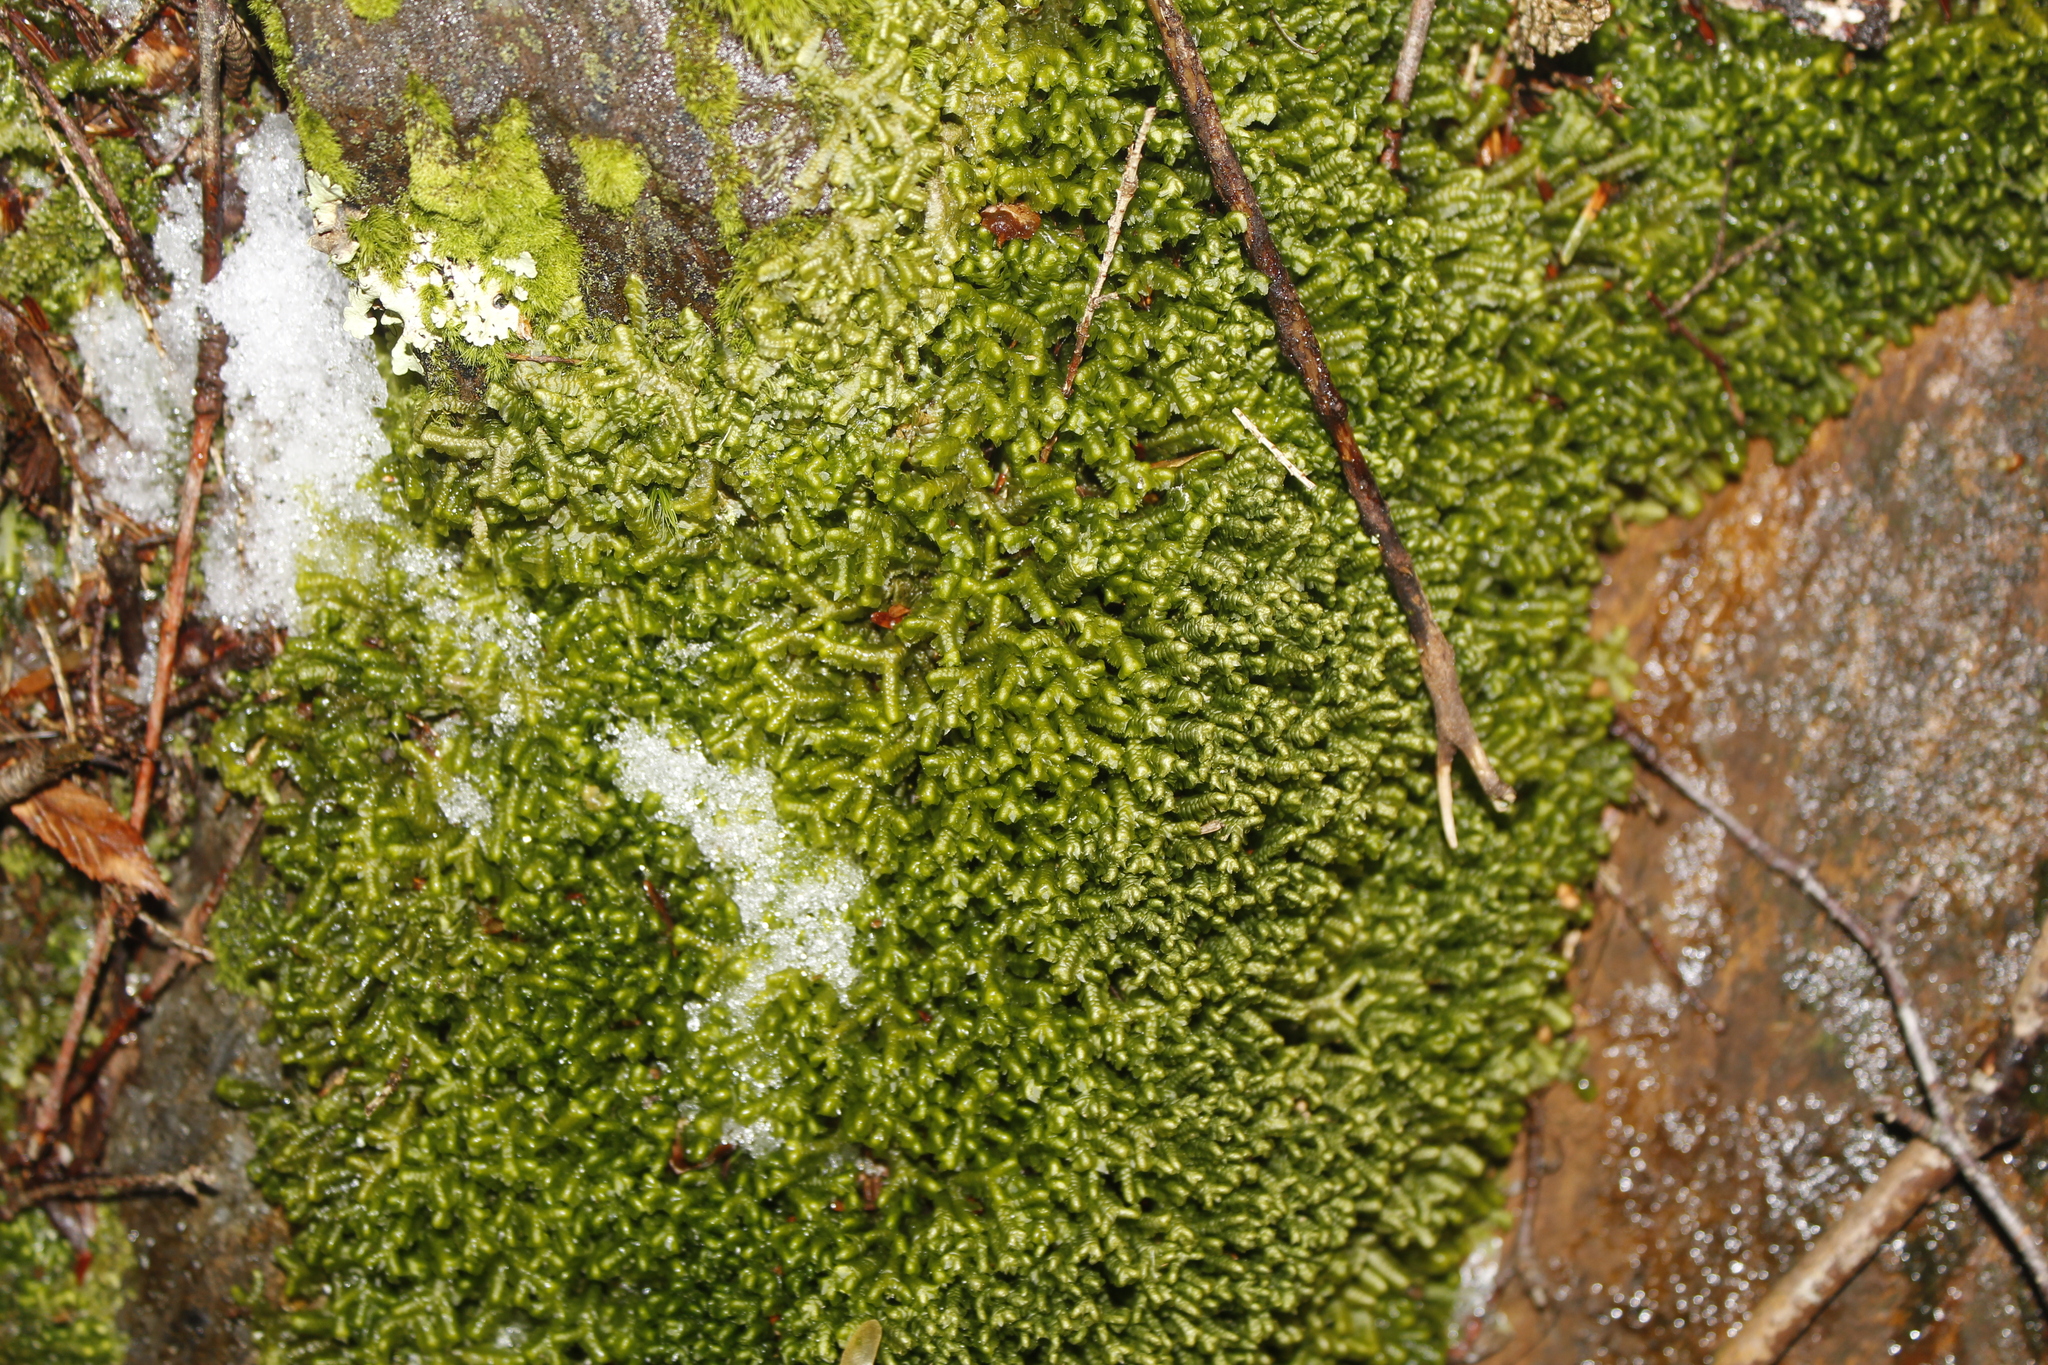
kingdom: Plantae
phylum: Marchantiophyta
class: Jungermanniopsida
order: Jungermanniales
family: Lepidoziaceae
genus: Bazzania
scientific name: Bazzania trilobata
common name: Three-lobed whipwort
